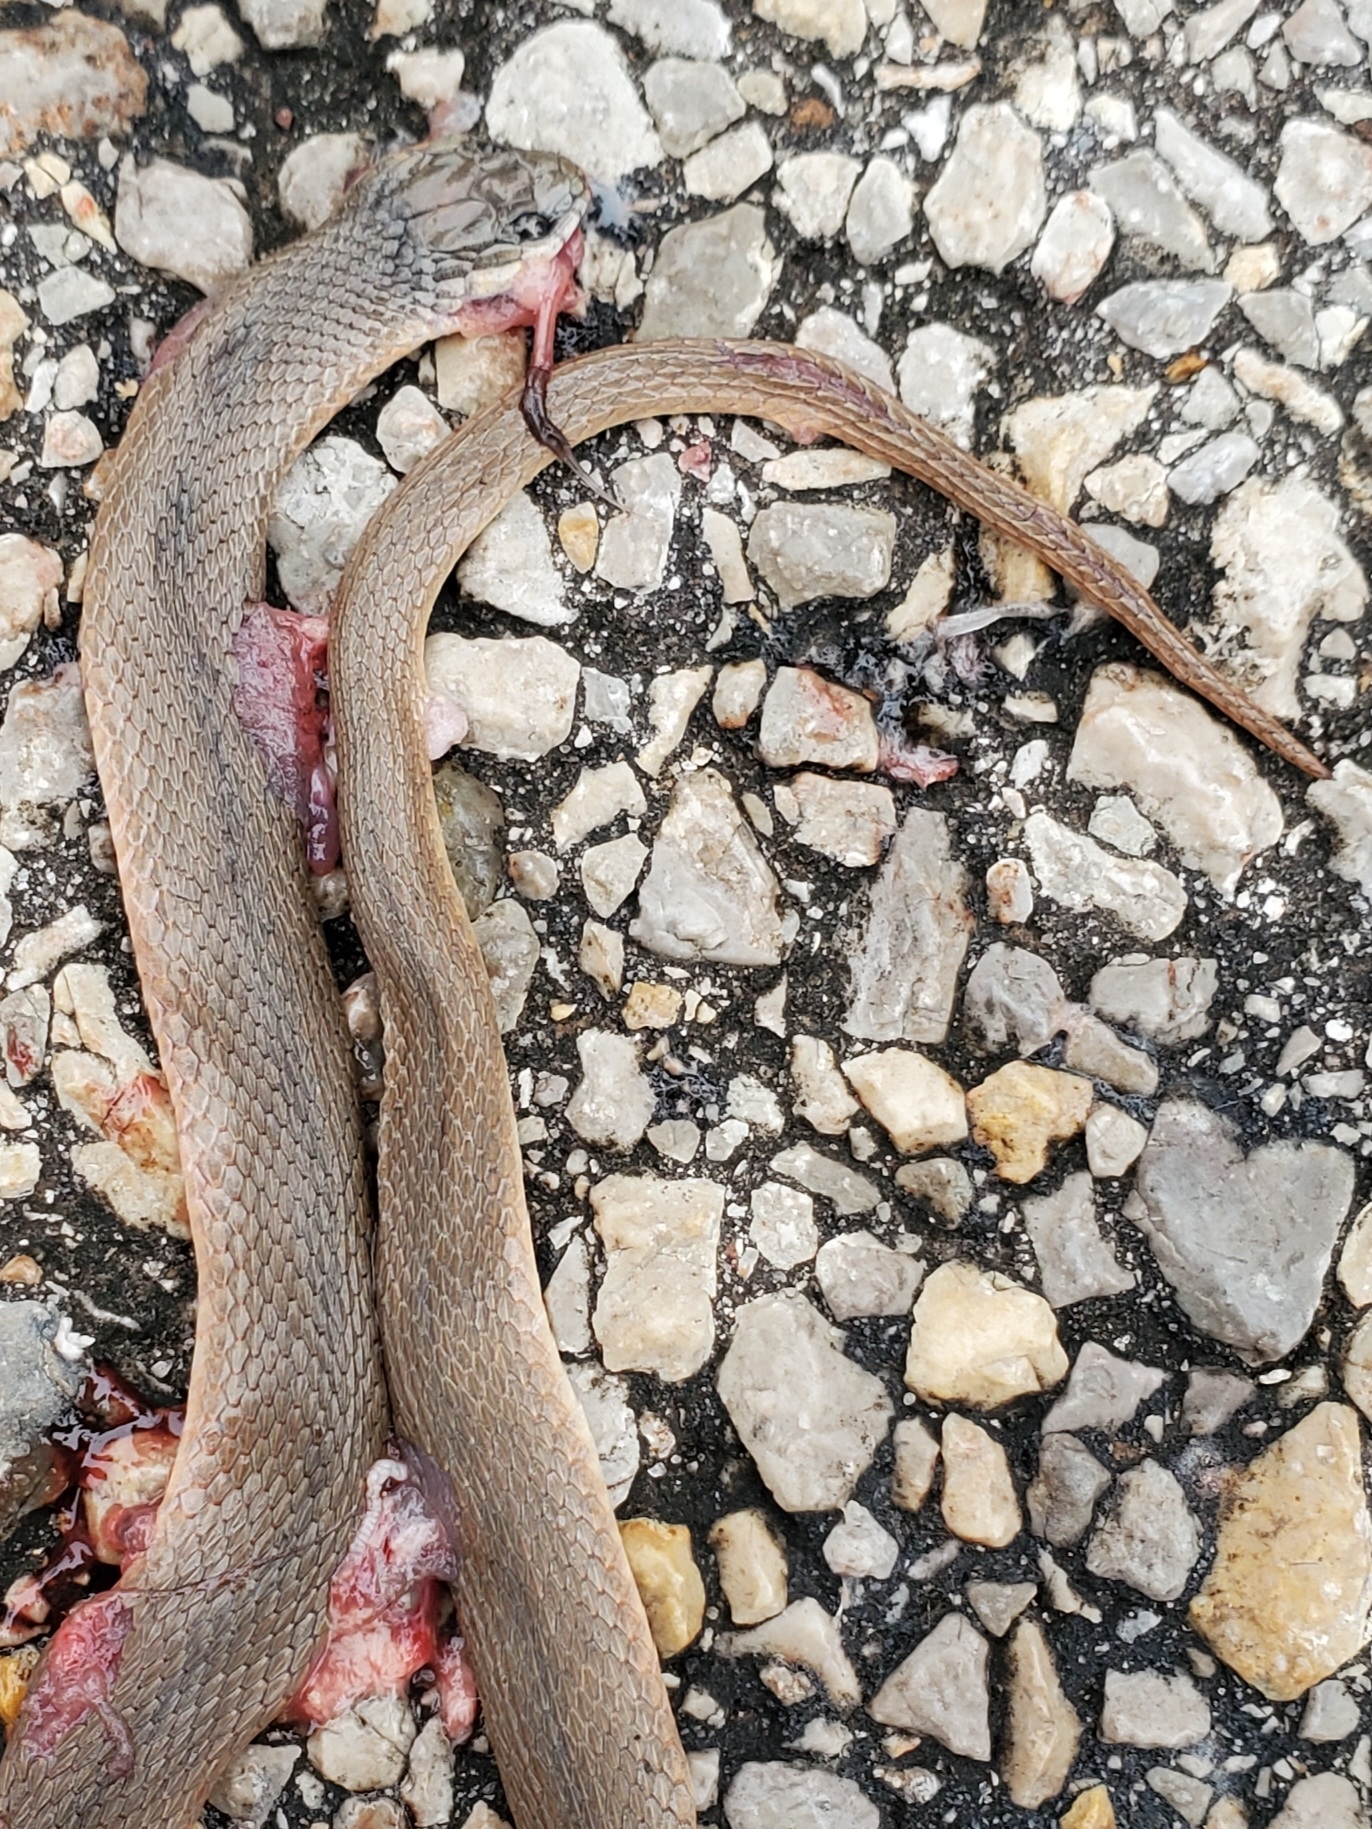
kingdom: Animalia
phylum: Chordata
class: Squamata
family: Colubridae
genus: Haldea
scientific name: Haldea striatula
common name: Rough earth snake
